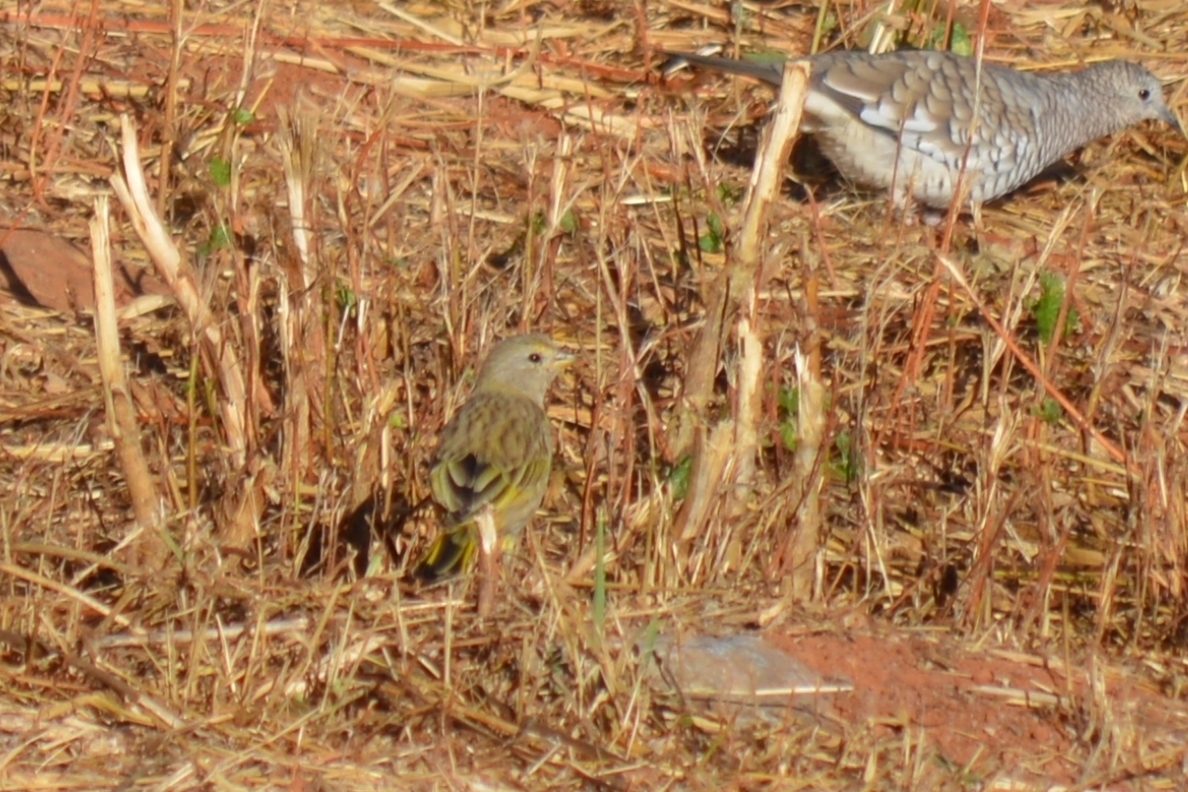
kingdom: Animalia
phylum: Chordata
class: Aves
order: Passeriformes
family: Thraupidae
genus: Sicalis
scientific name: Sicalis flaveola
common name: Saffron finch
